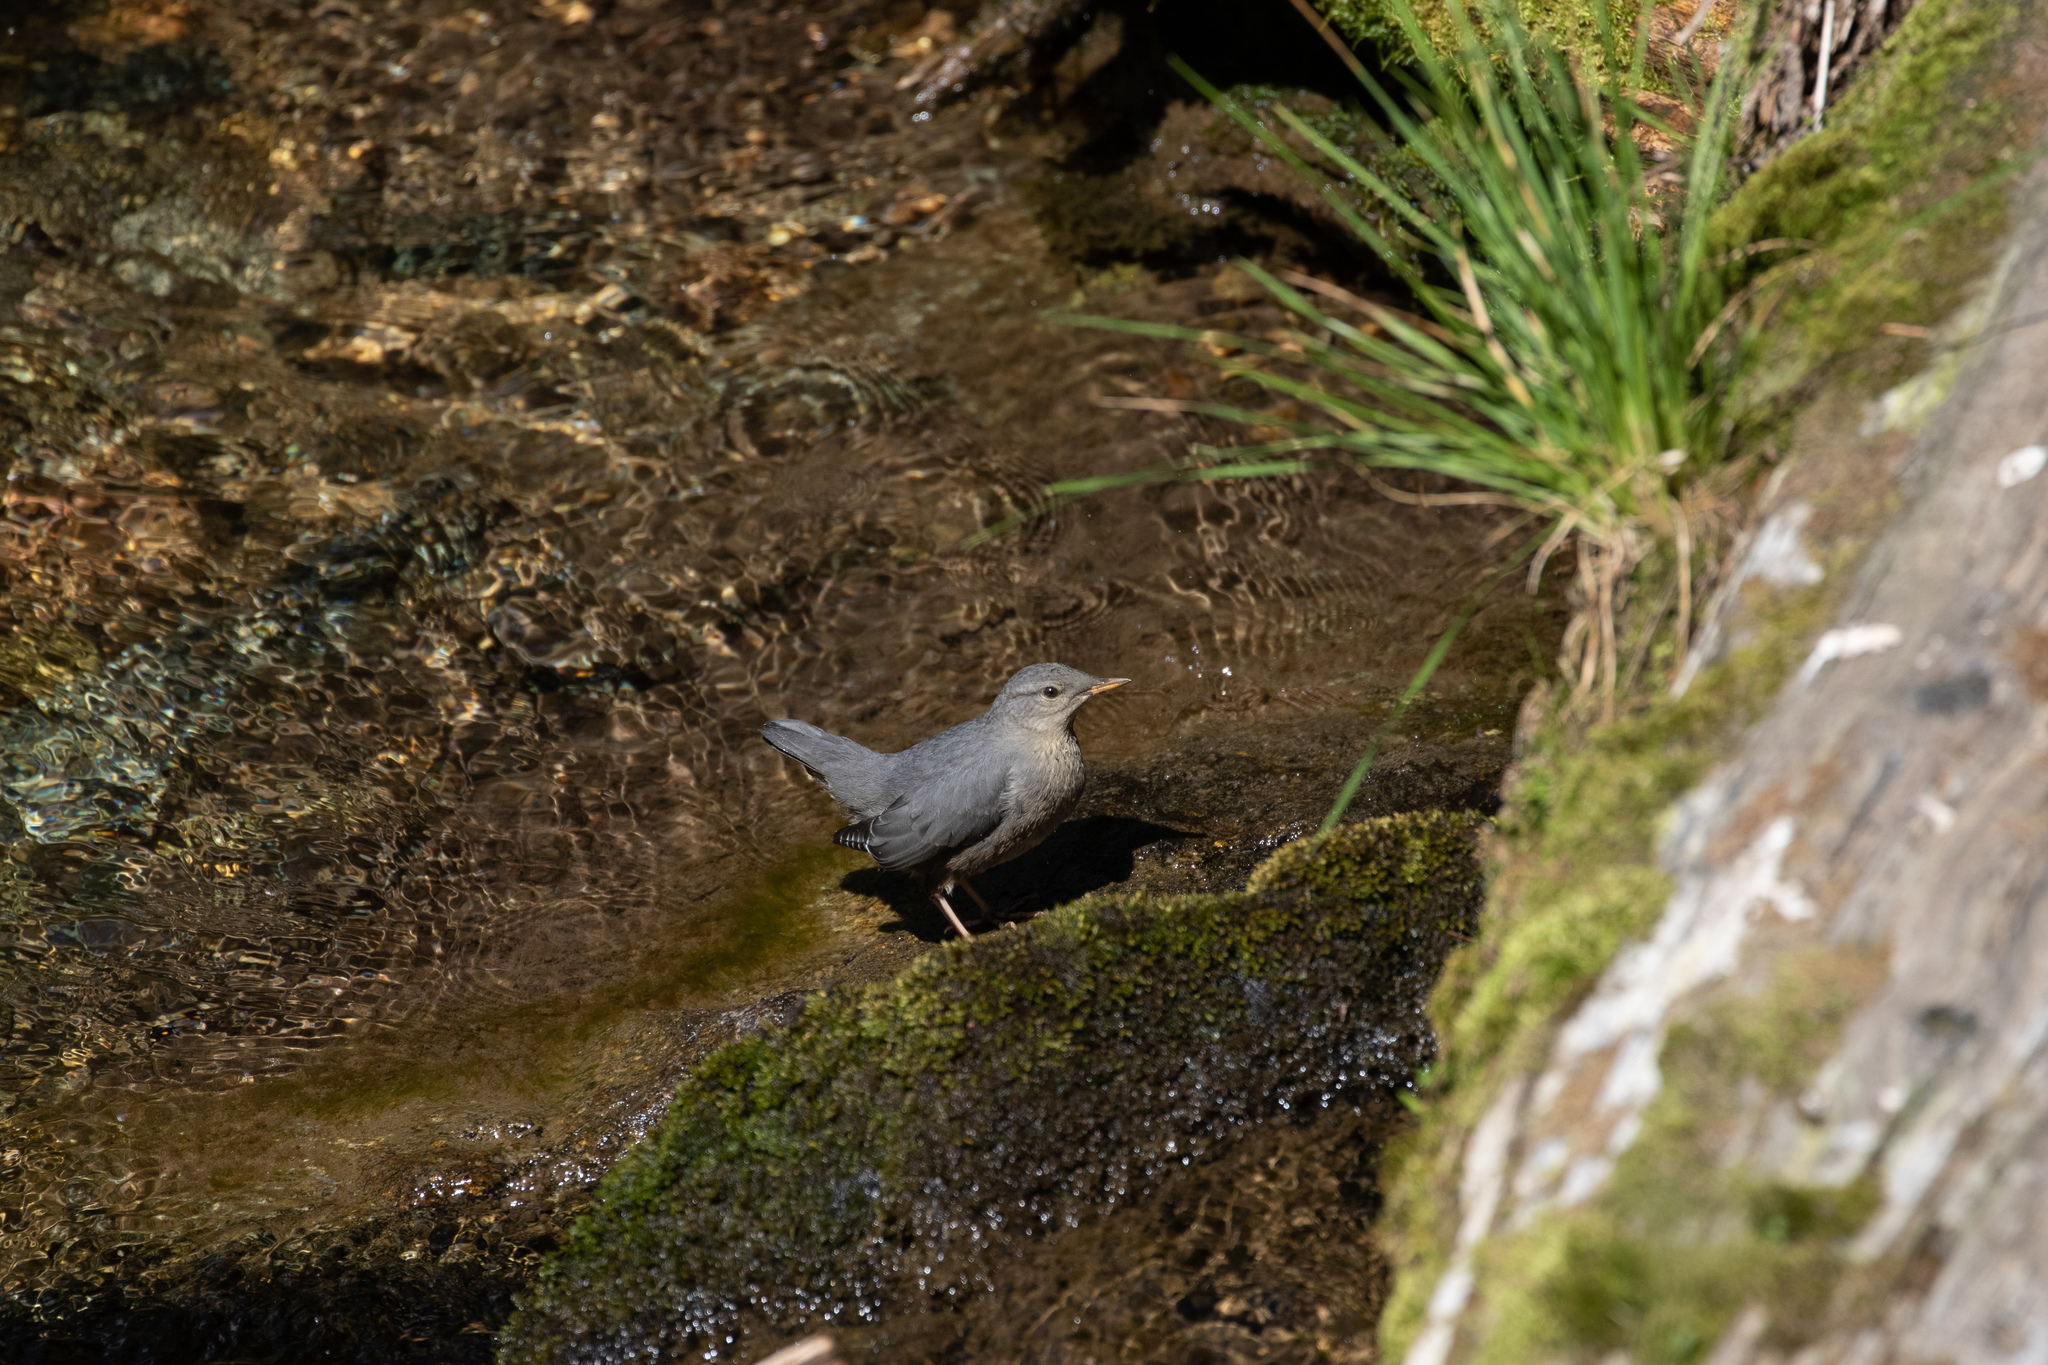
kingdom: Animalia
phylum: Chordata
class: Aves
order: Passeriformes
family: Cinclidae
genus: Cinclus
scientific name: Cinclus mexicanus
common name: American dipper
